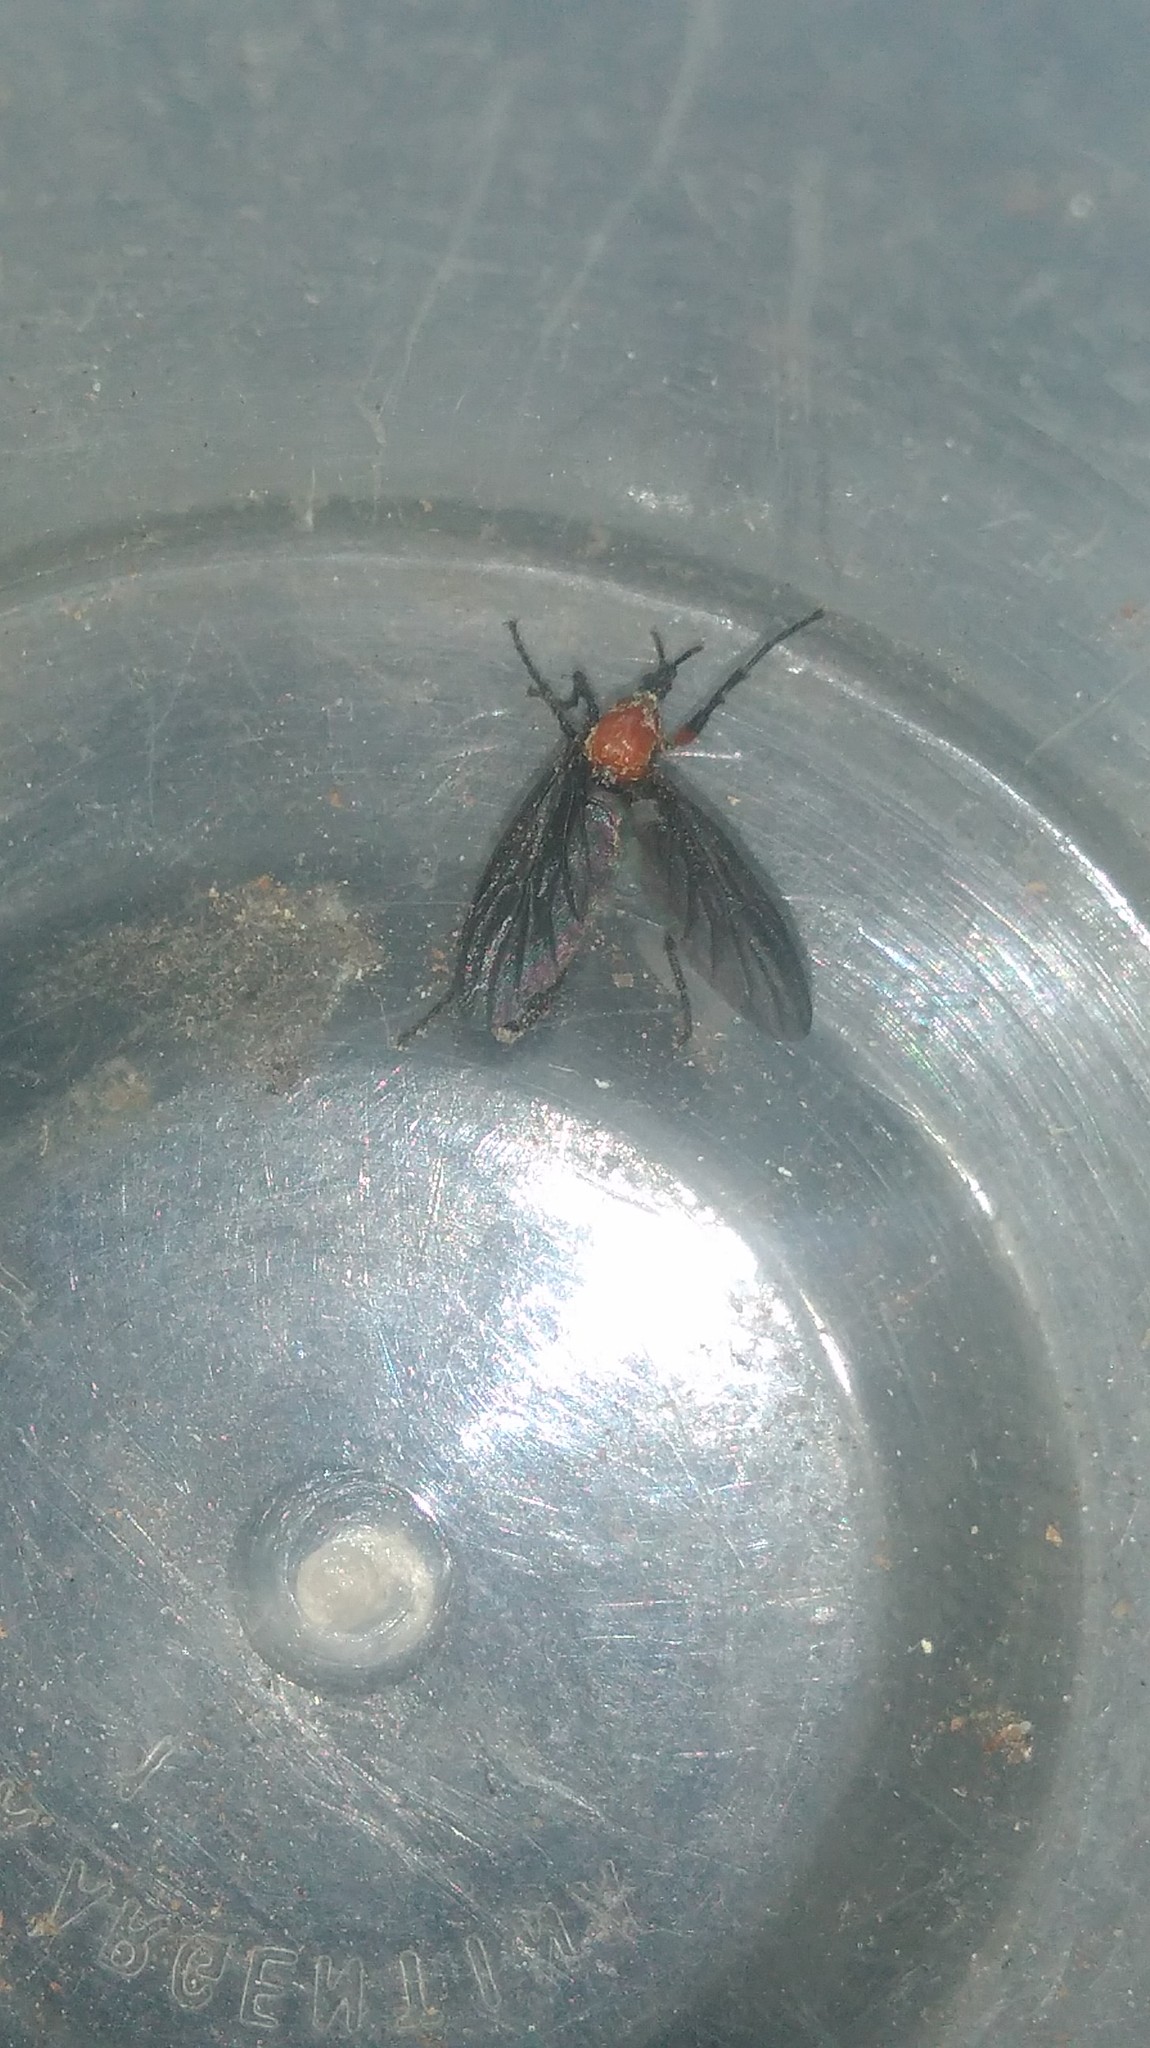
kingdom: Animalia
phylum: Arthropoda
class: Insecta
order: Diptera
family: Bibionidae
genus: Dilophus
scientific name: Dilophus pectoralis
